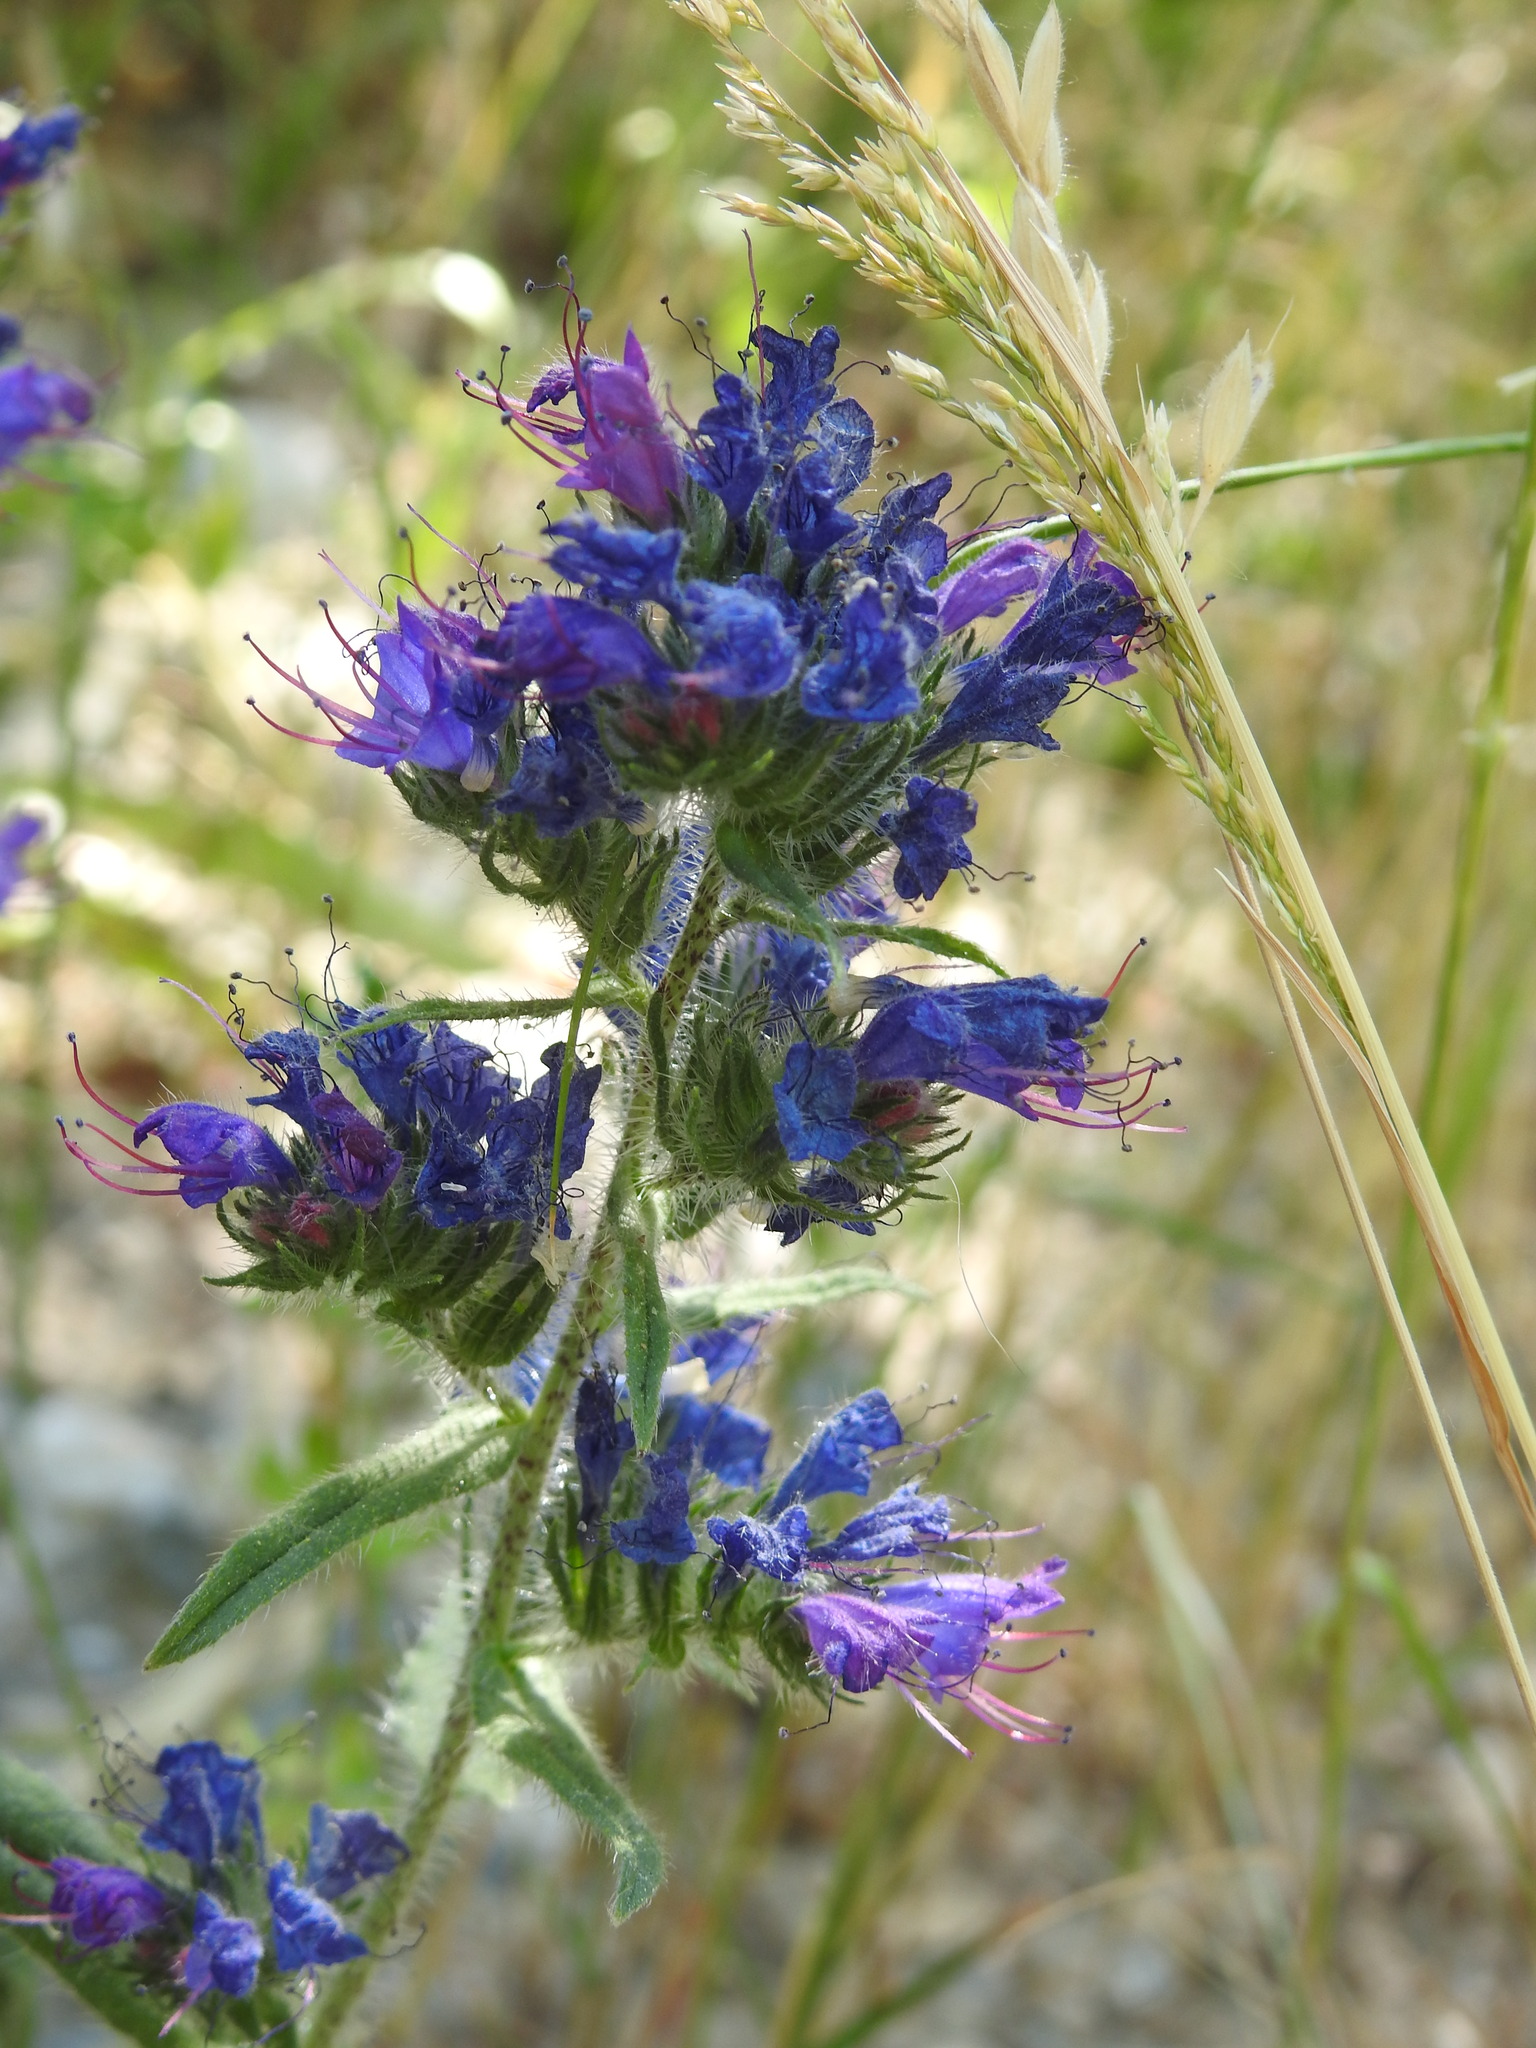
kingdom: Plantae
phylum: Tracheophyta
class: Magnoliopsida
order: Boraginales
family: Boraginaceae
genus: Echium
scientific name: Echium vulgare
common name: Common viper's bugloss
